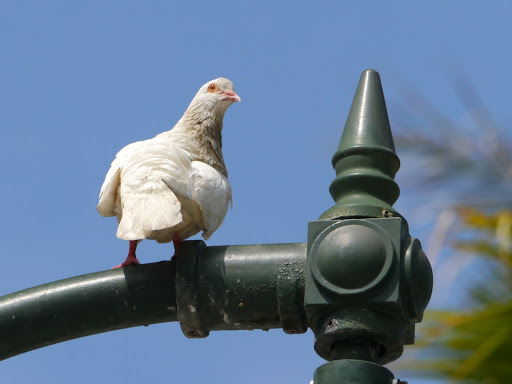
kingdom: Animalia
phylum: Chordata
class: Aves
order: Columbiformes
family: Columbidae
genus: Columba
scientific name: Columba livia
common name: Rock pigeon
